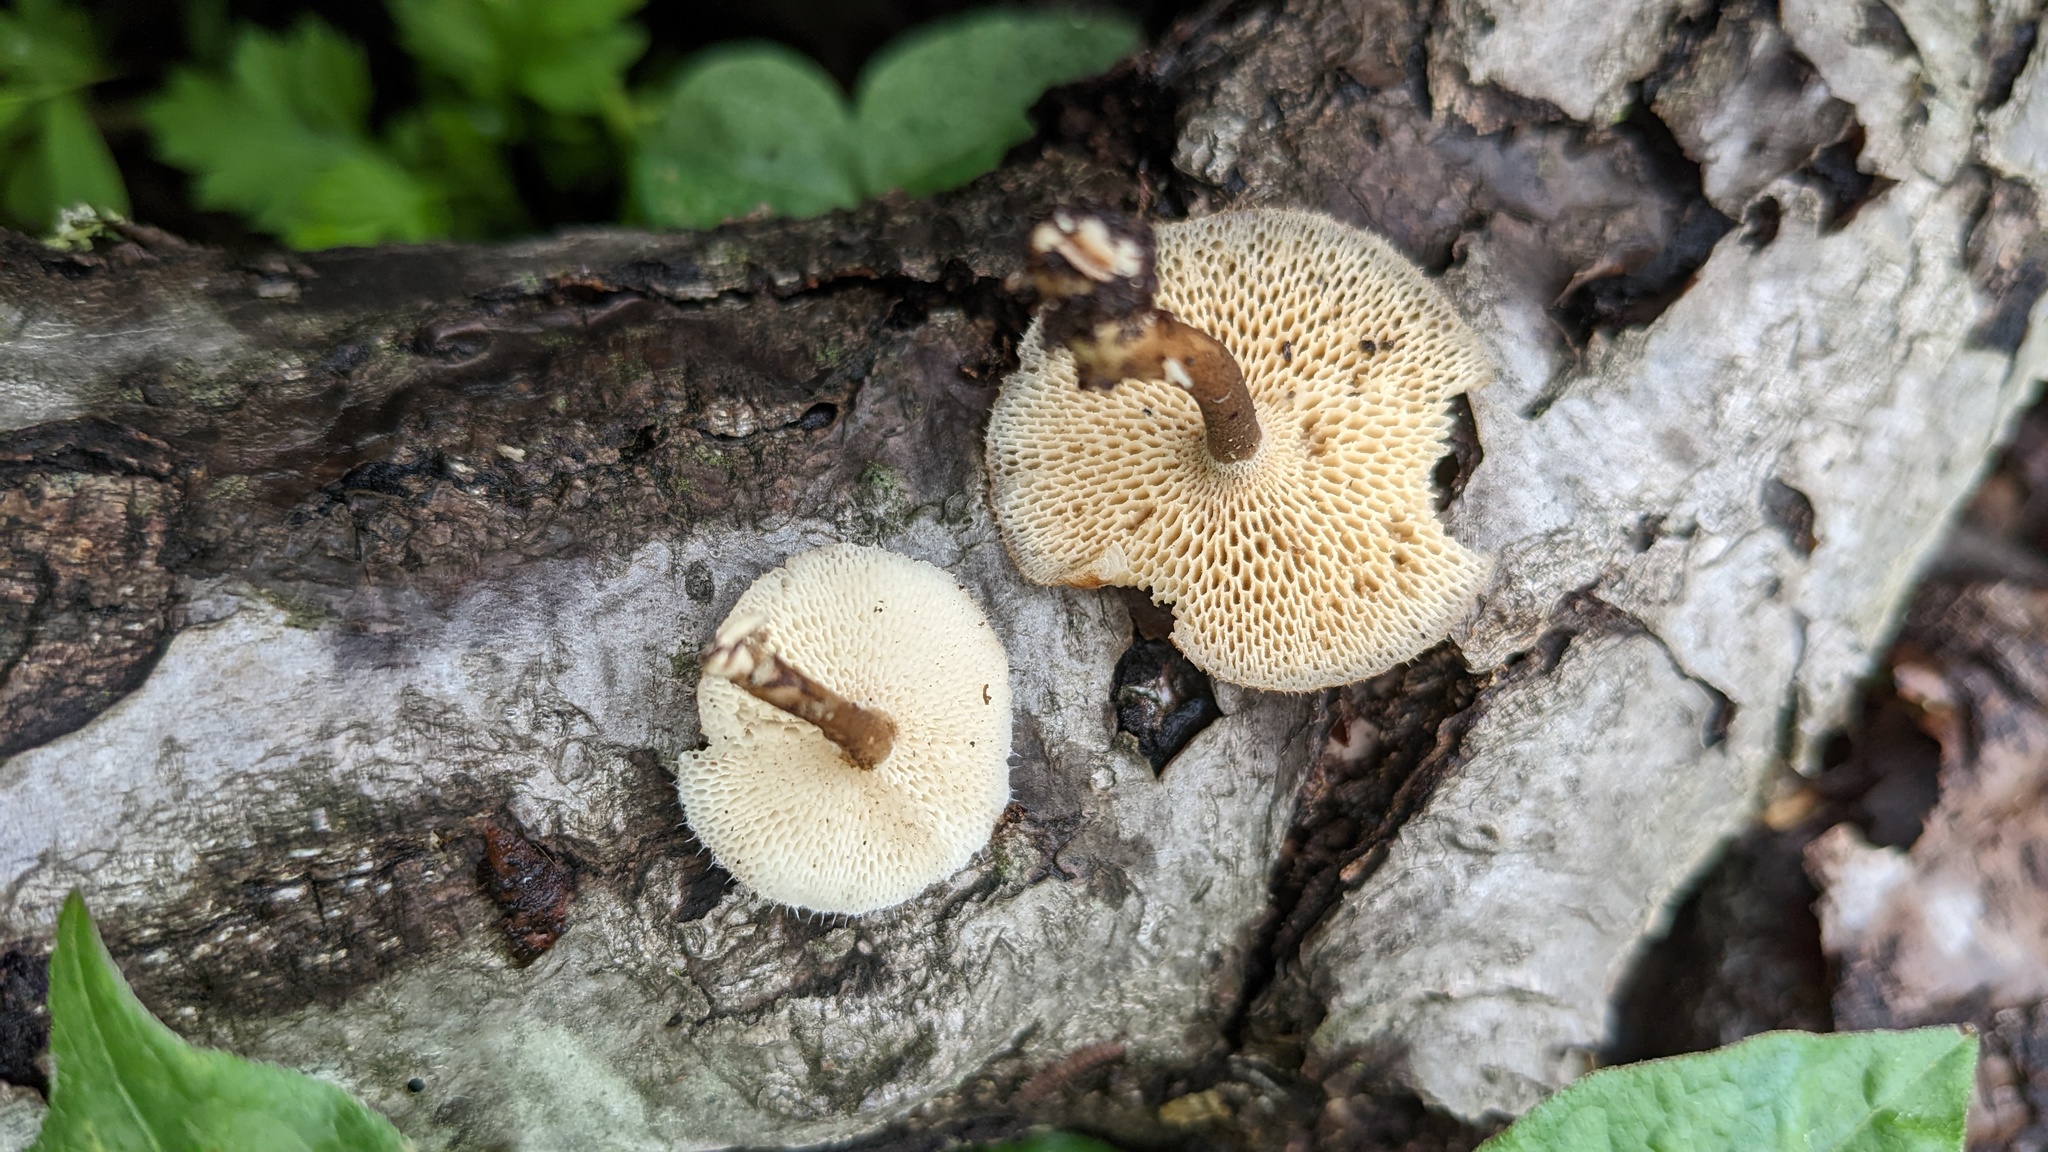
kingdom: Fungi
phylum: Basidiomycota
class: Agaricomycetes
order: Polyporales
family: Polyporaceae
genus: Lentinus
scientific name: Lentinus arcularius
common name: Spring polypore
